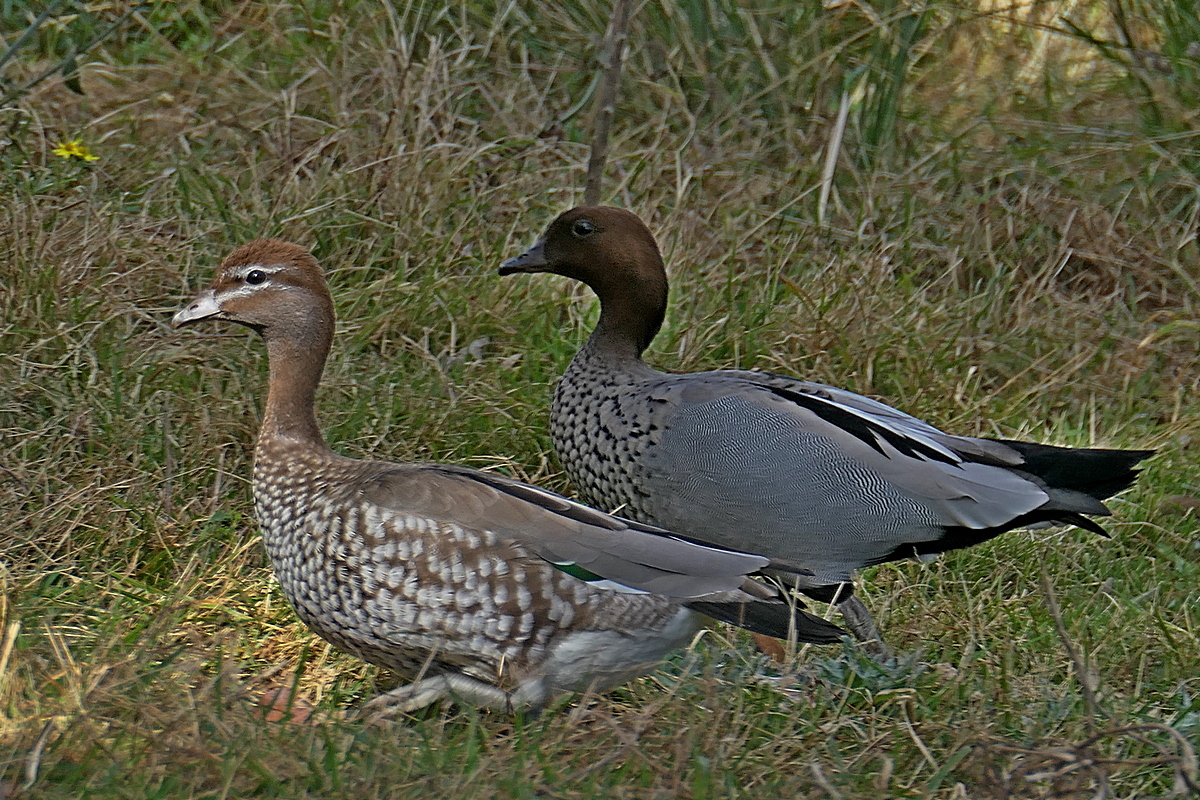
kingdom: Animalia
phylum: Chordata
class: Aves
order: Anseriformes
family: Anatidae
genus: Chenonetta
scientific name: Chenonetta jubata
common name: Maned duck
